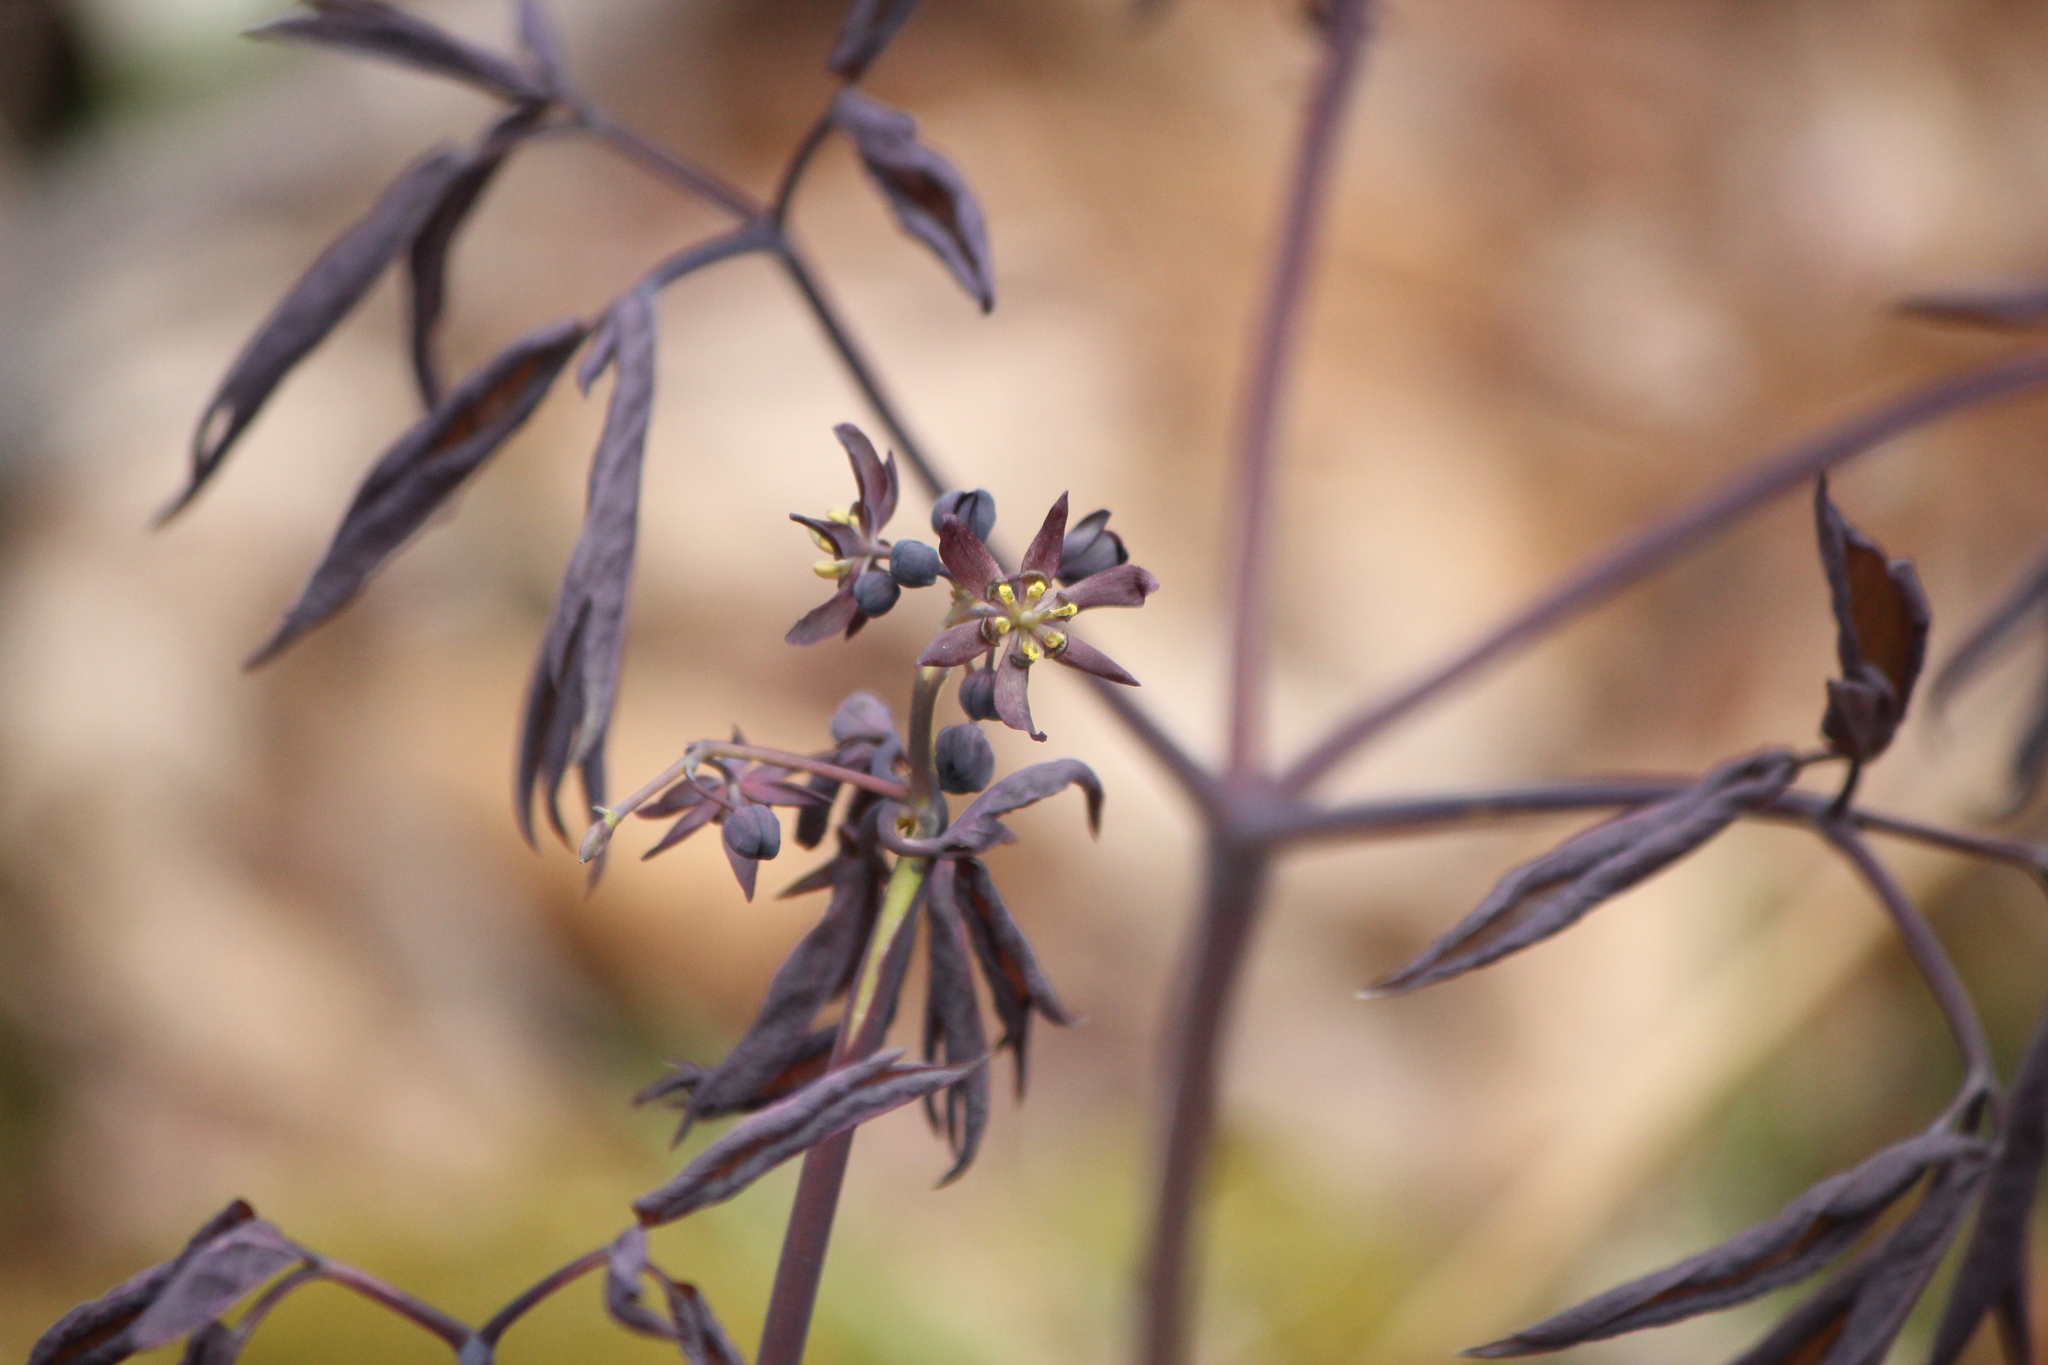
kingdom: Plantae
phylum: Tracheophyta
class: Magnoliopsida
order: Ranunculales
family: Berberidaceae
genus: Caulophyllum
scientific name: Caulophyllum giganteum
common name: Blue cohosh
